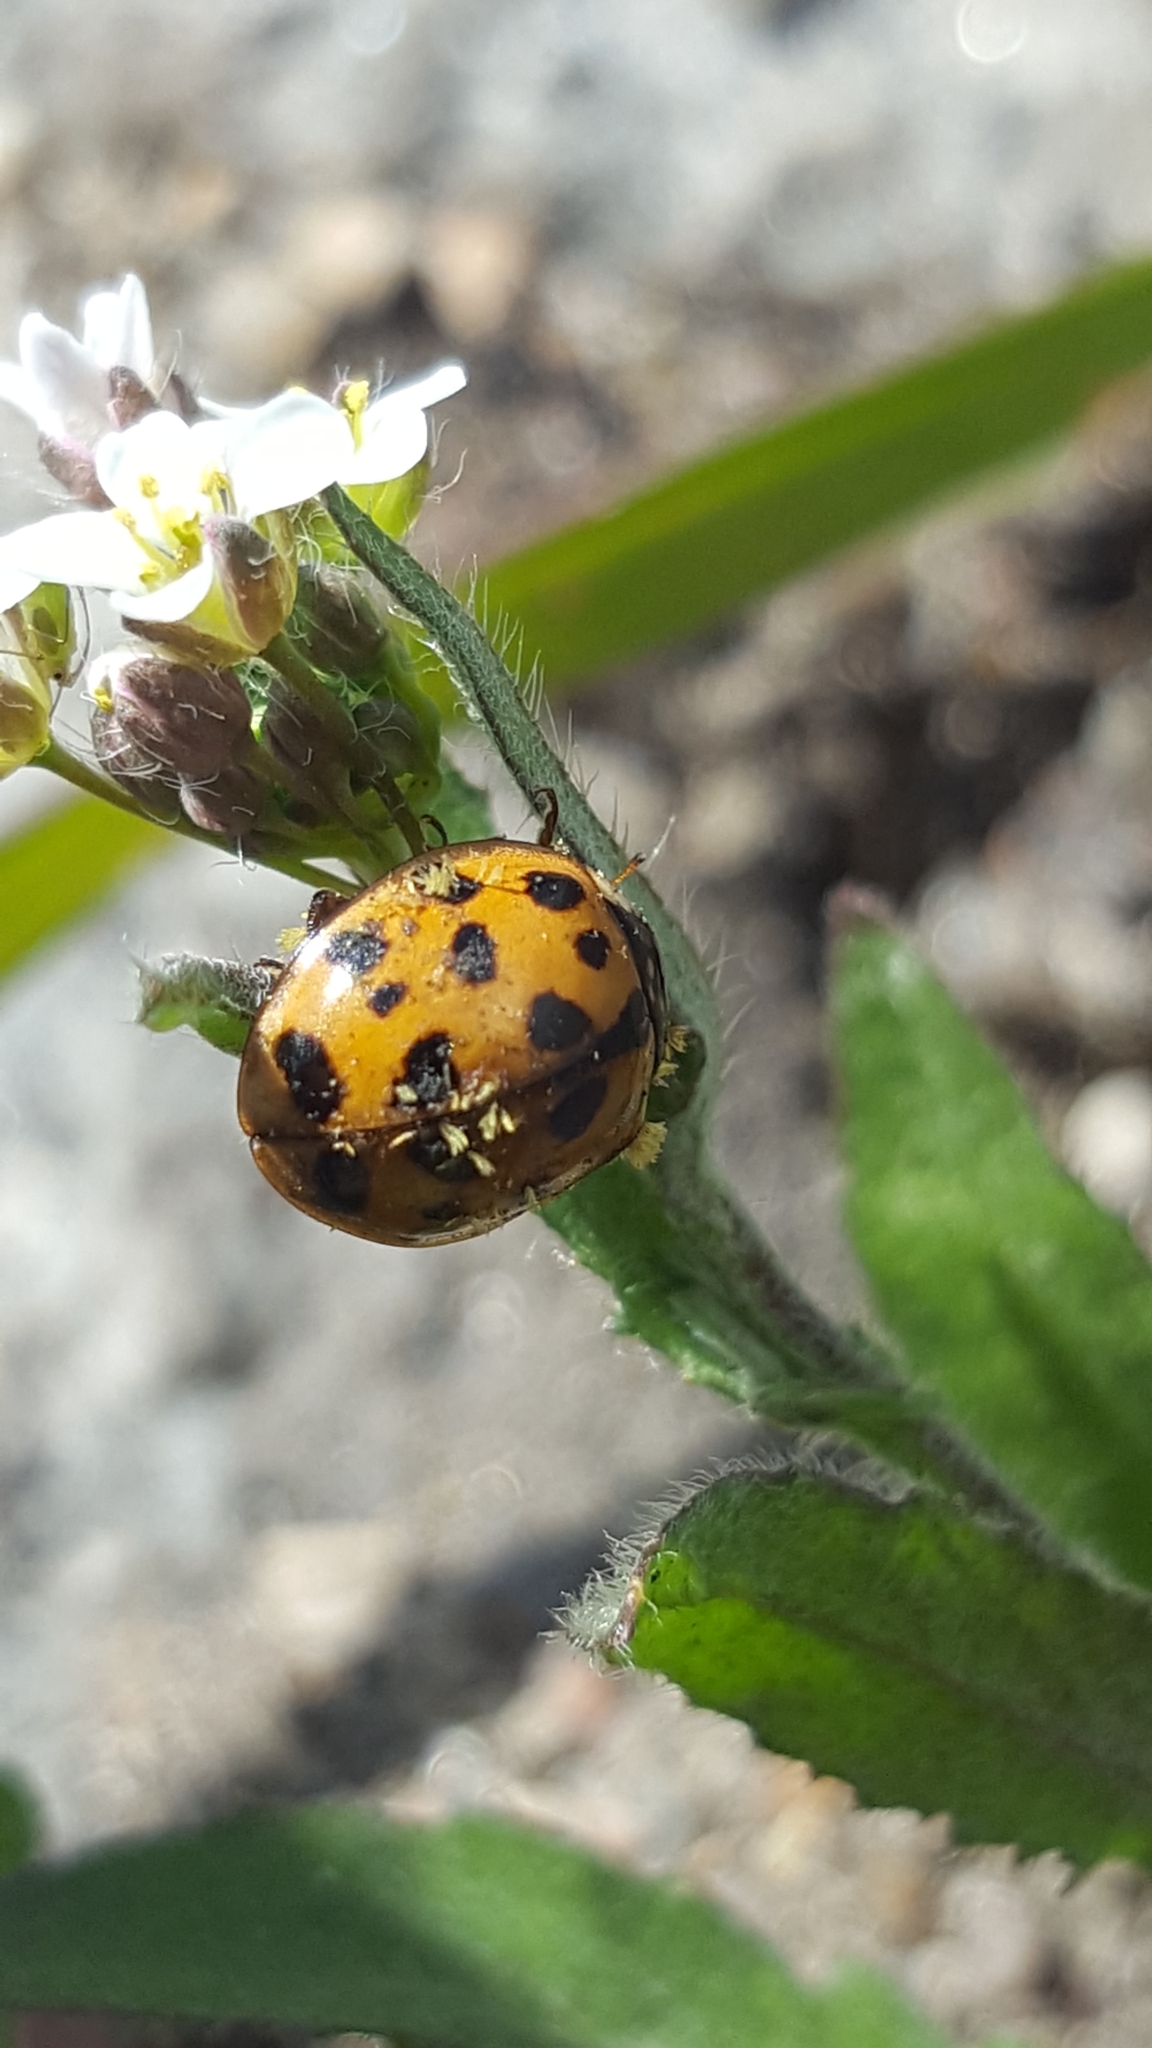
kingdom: Fungi
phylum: Ascomycota
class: Laboulbeniomycetes
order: Laboulbeniales
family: Laboulbeniaceae
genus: Hesperomyces
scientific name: Hesperomyces harmoniae
